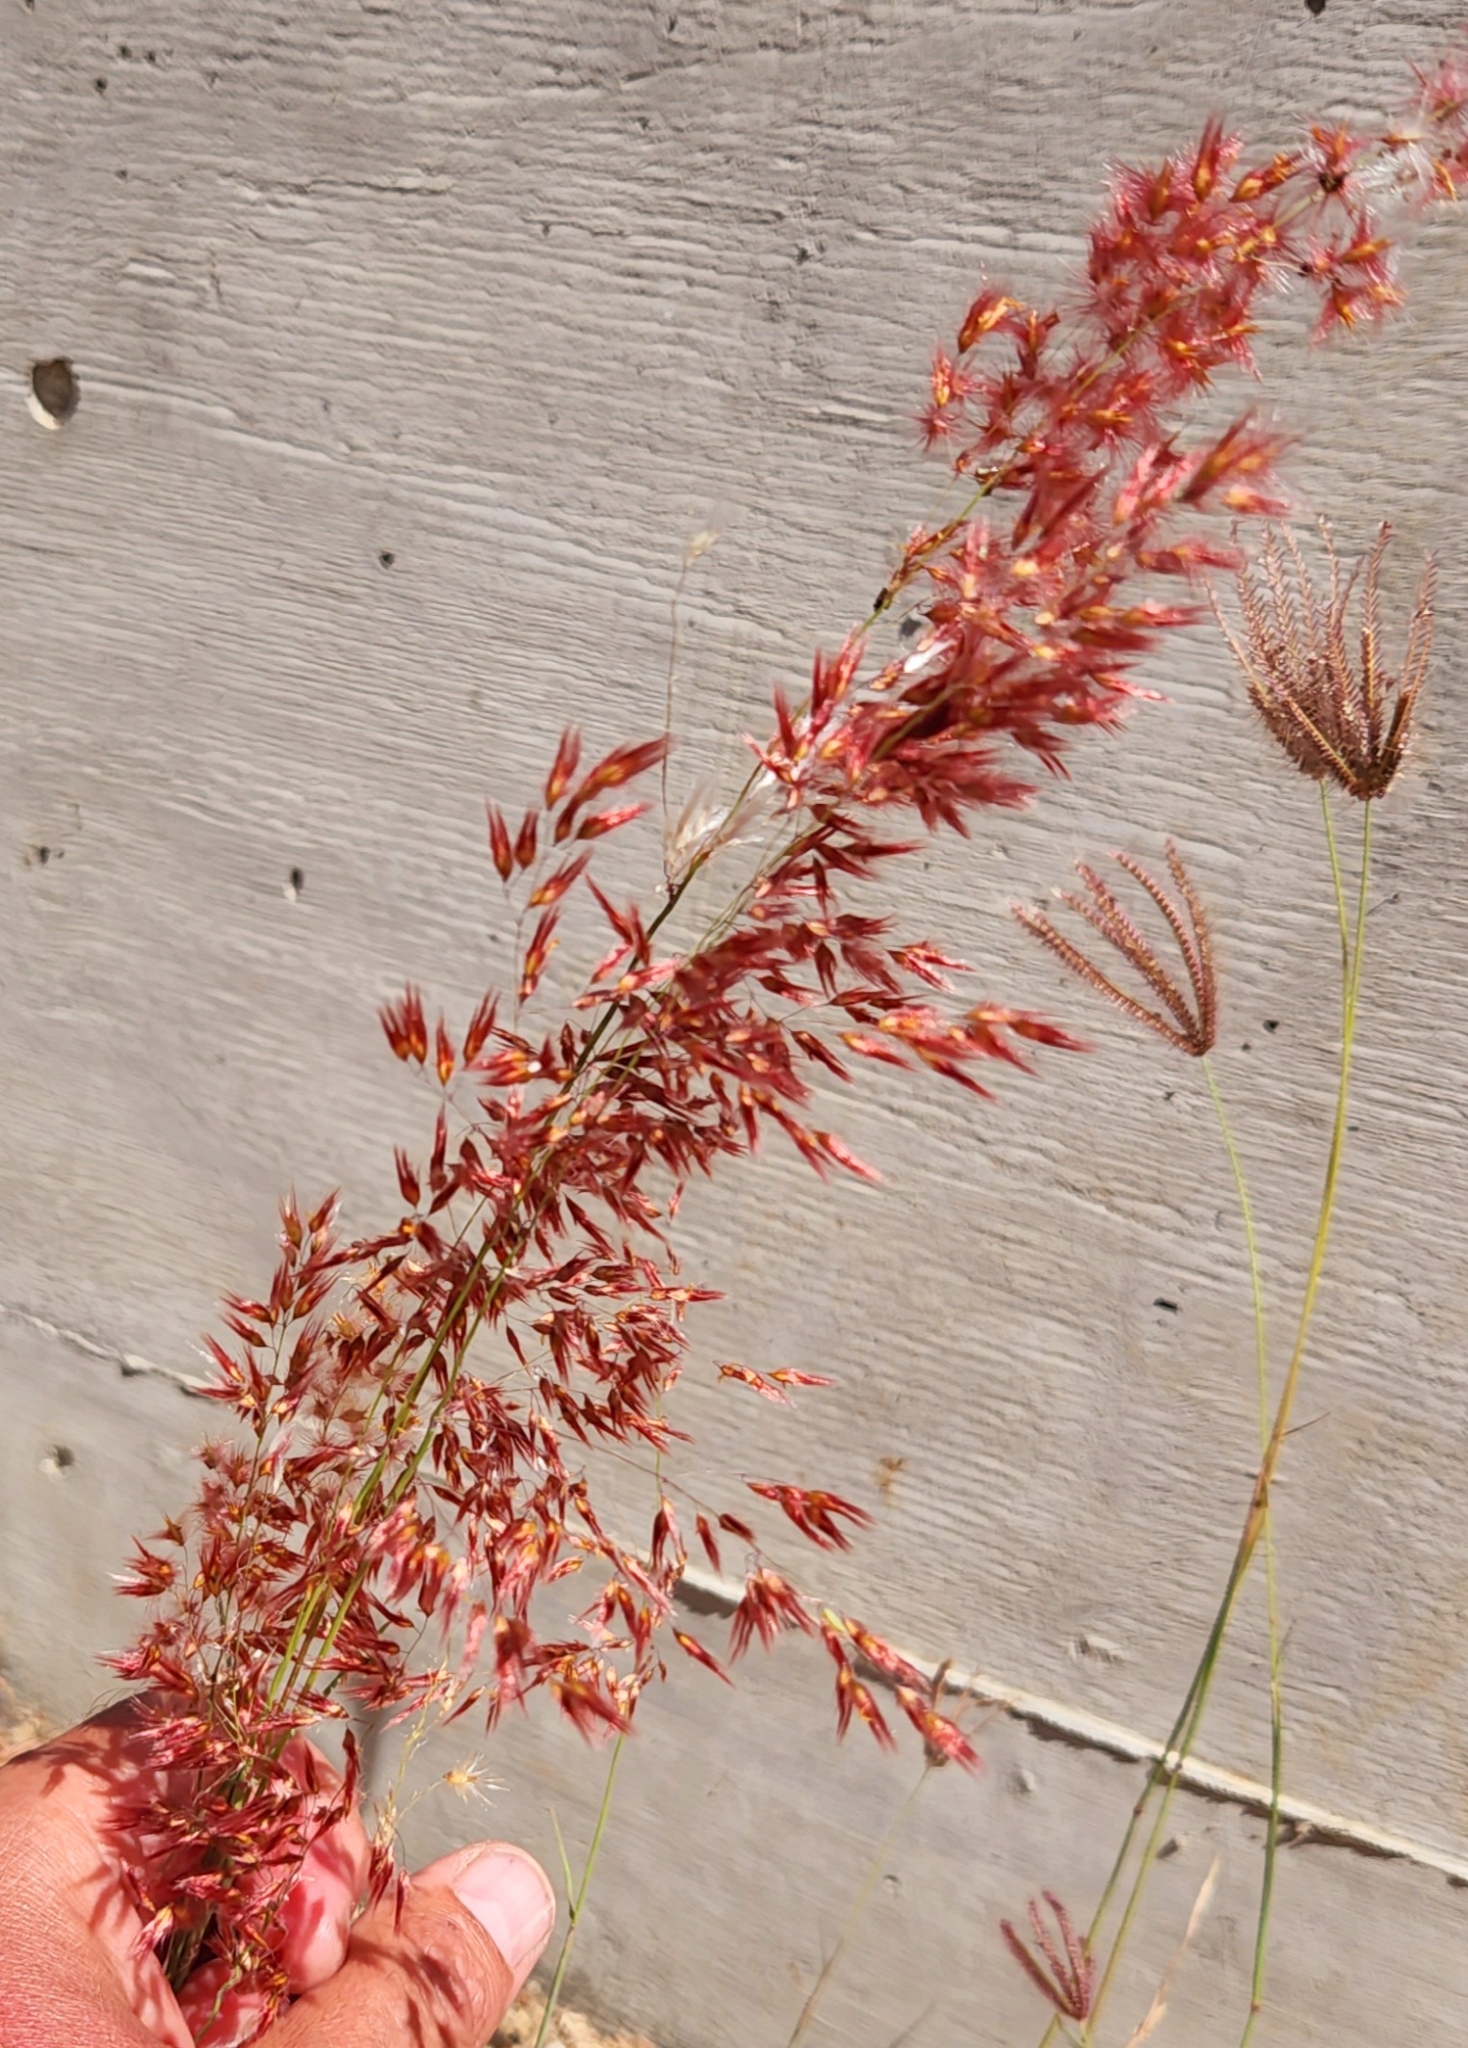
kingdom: Plantae
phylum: Tracheophyta
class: Liliopsida
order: Poales
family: Poaceae
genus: Melinis
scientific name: Melinis repens
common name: Rose natal grass
